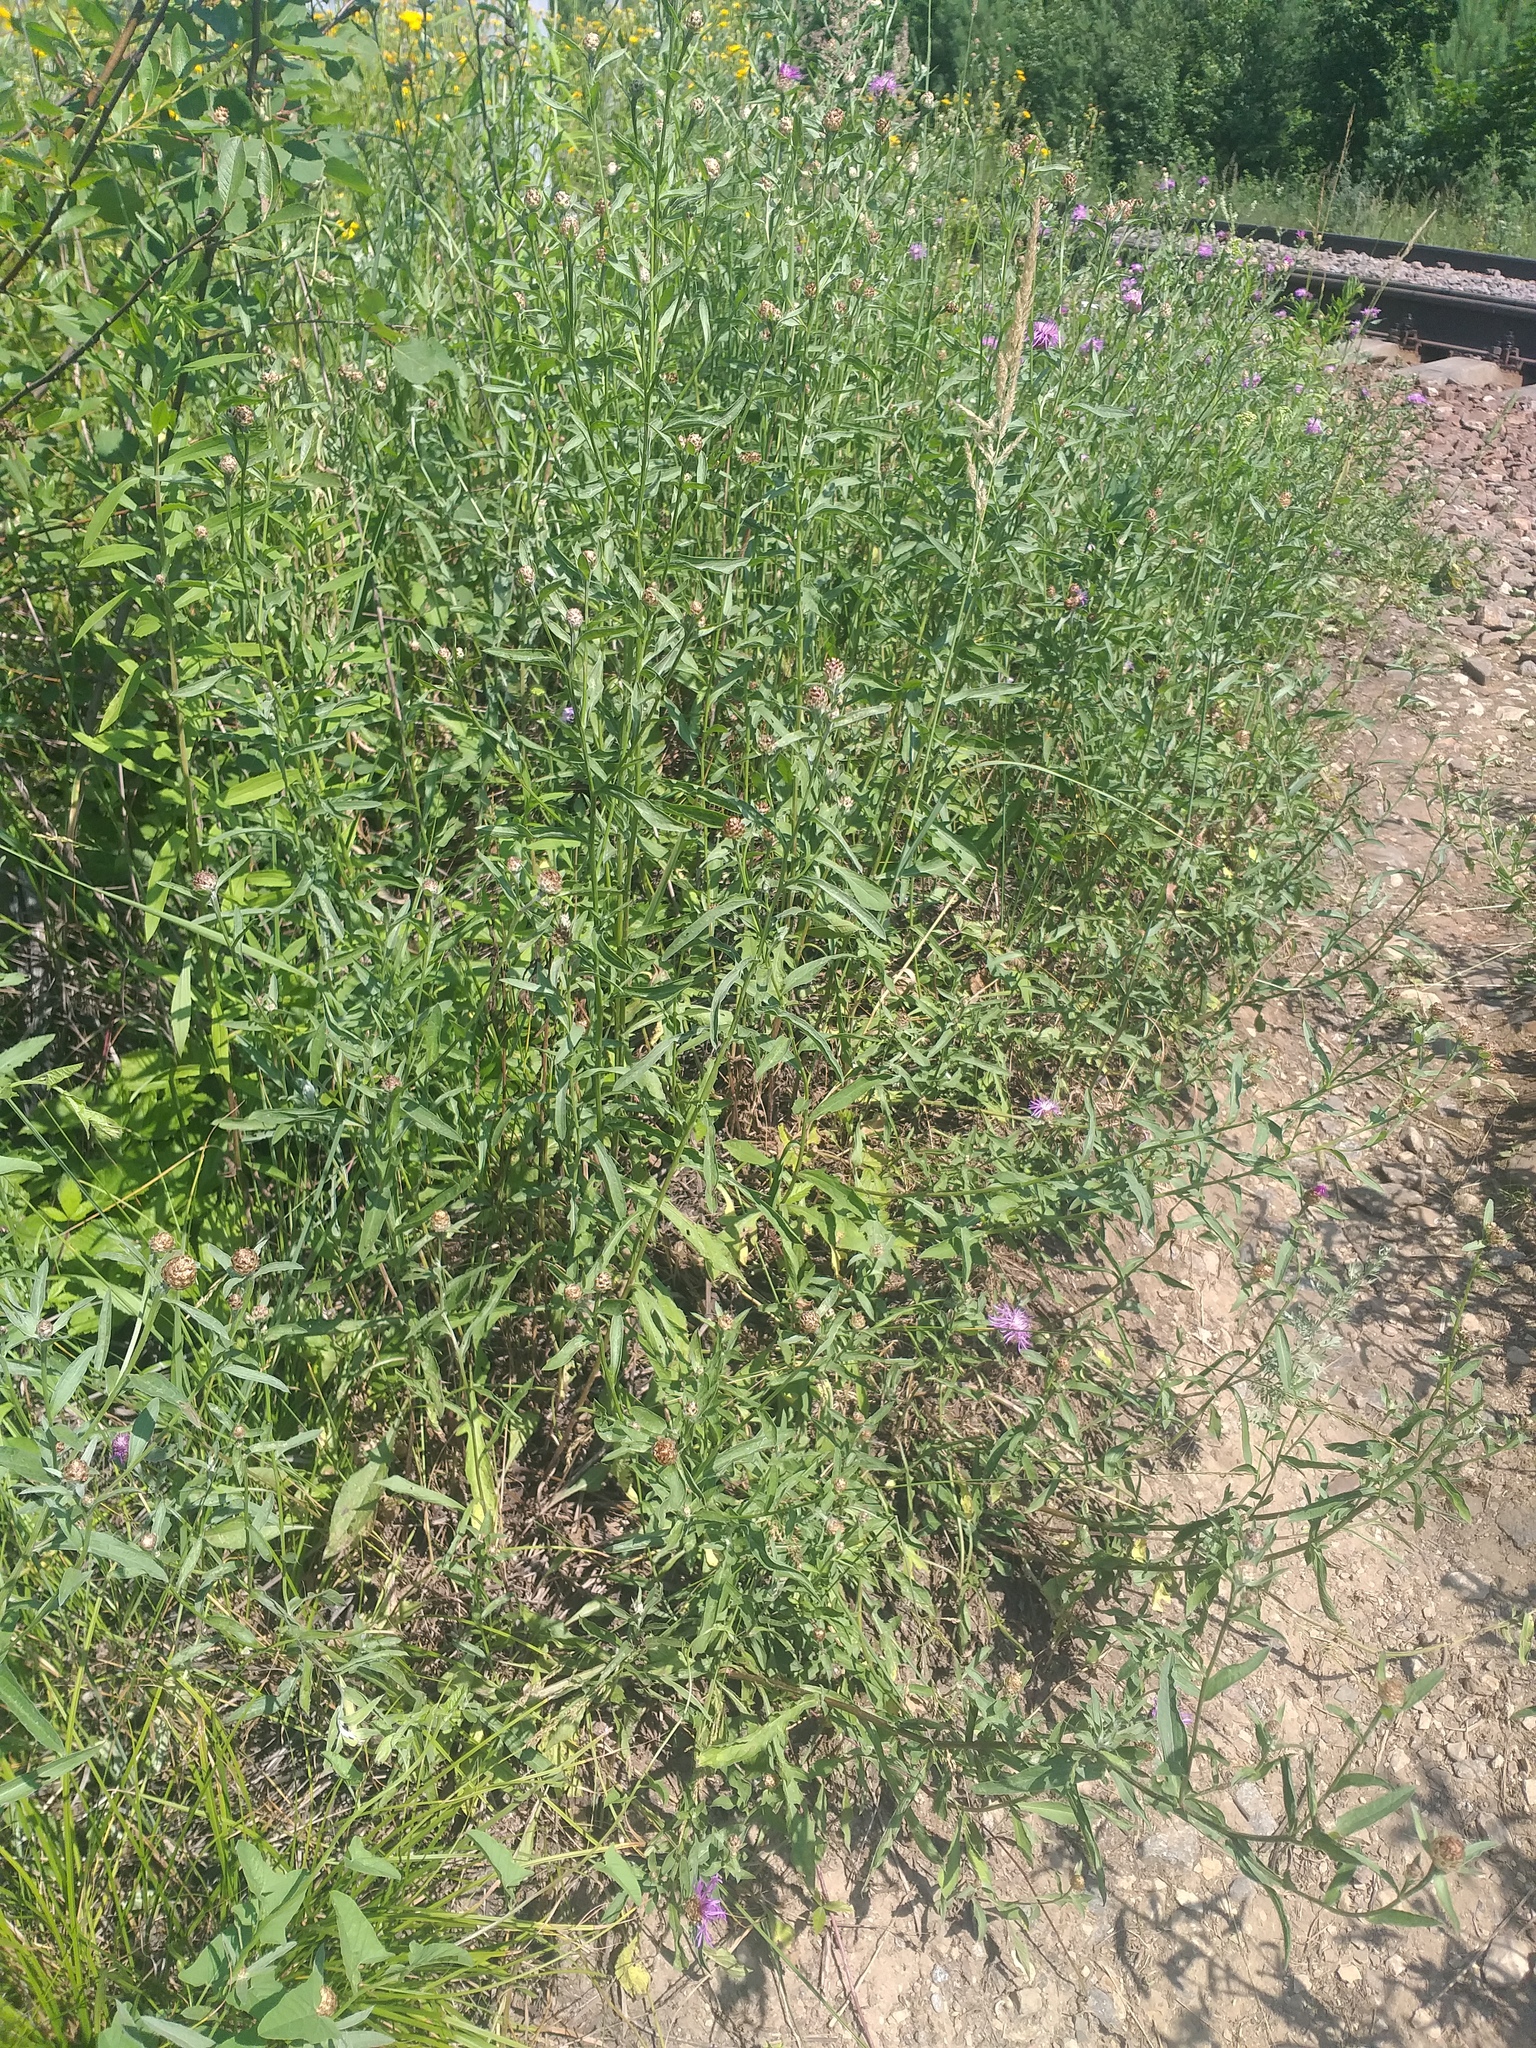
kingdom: Plantae
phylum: Tracheophyta
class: Magnoliopsida
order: Asterales
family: Asteraceae
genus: Centaurea
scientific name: Centaurea jacea
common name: Brown knapweed
